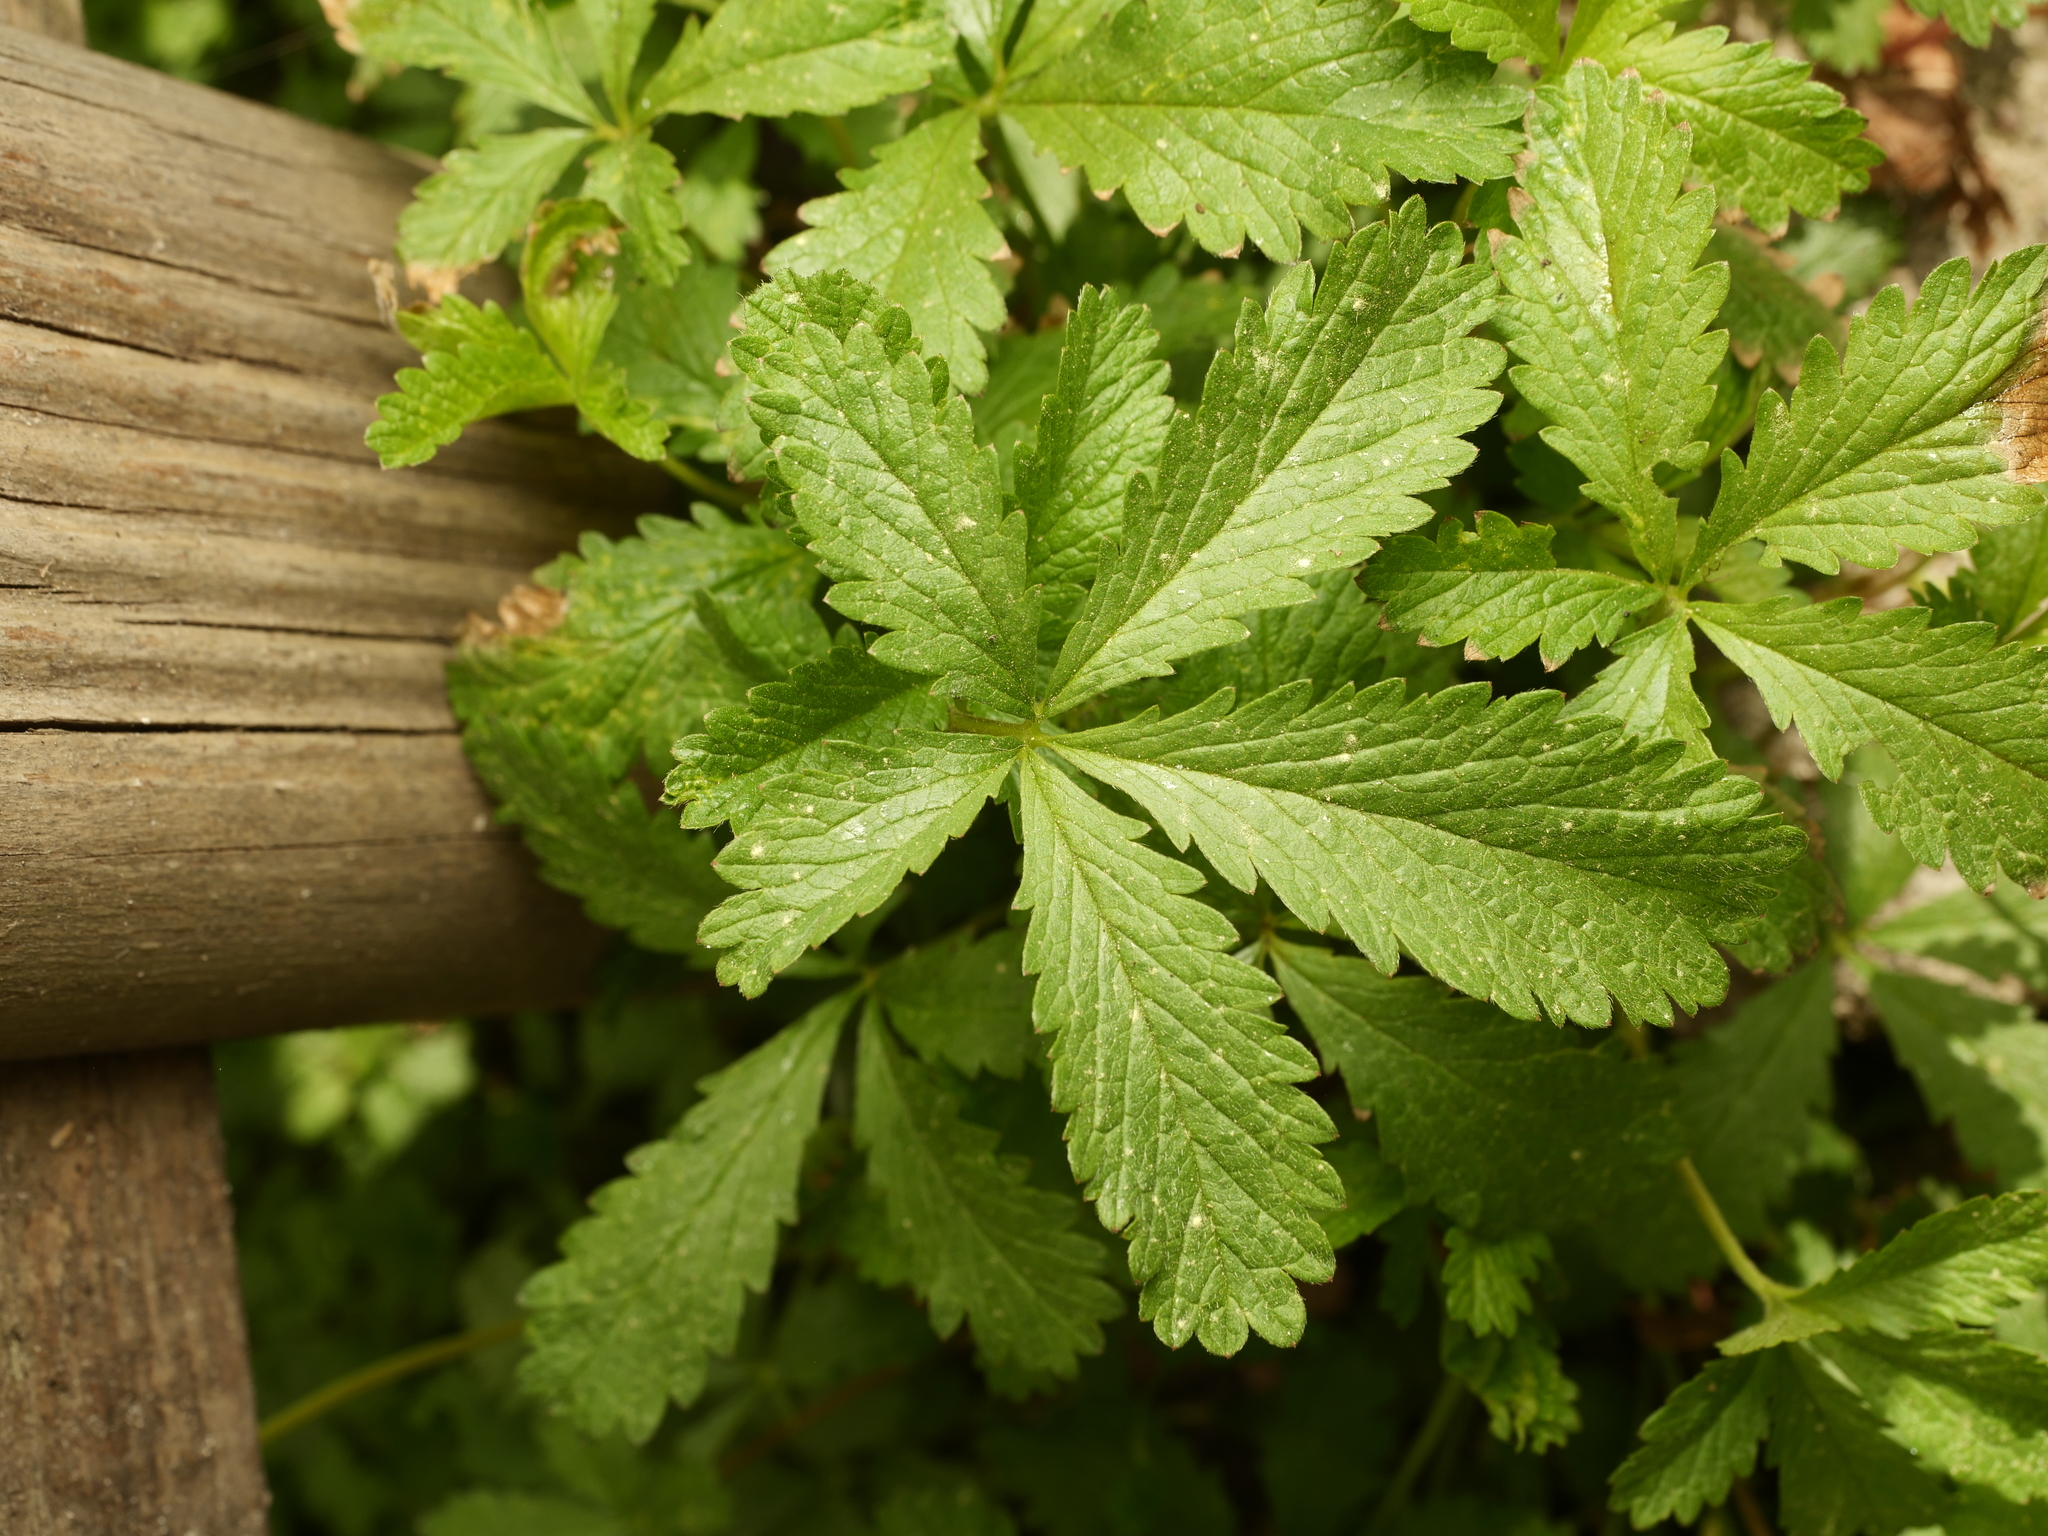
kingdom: Plantae
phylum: Tracheophyta
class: Magnoliopsida
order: Rosales
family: Rosaceae
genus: Potentilla
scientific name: Potentilla reptans
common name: Creeping cinquefoil
